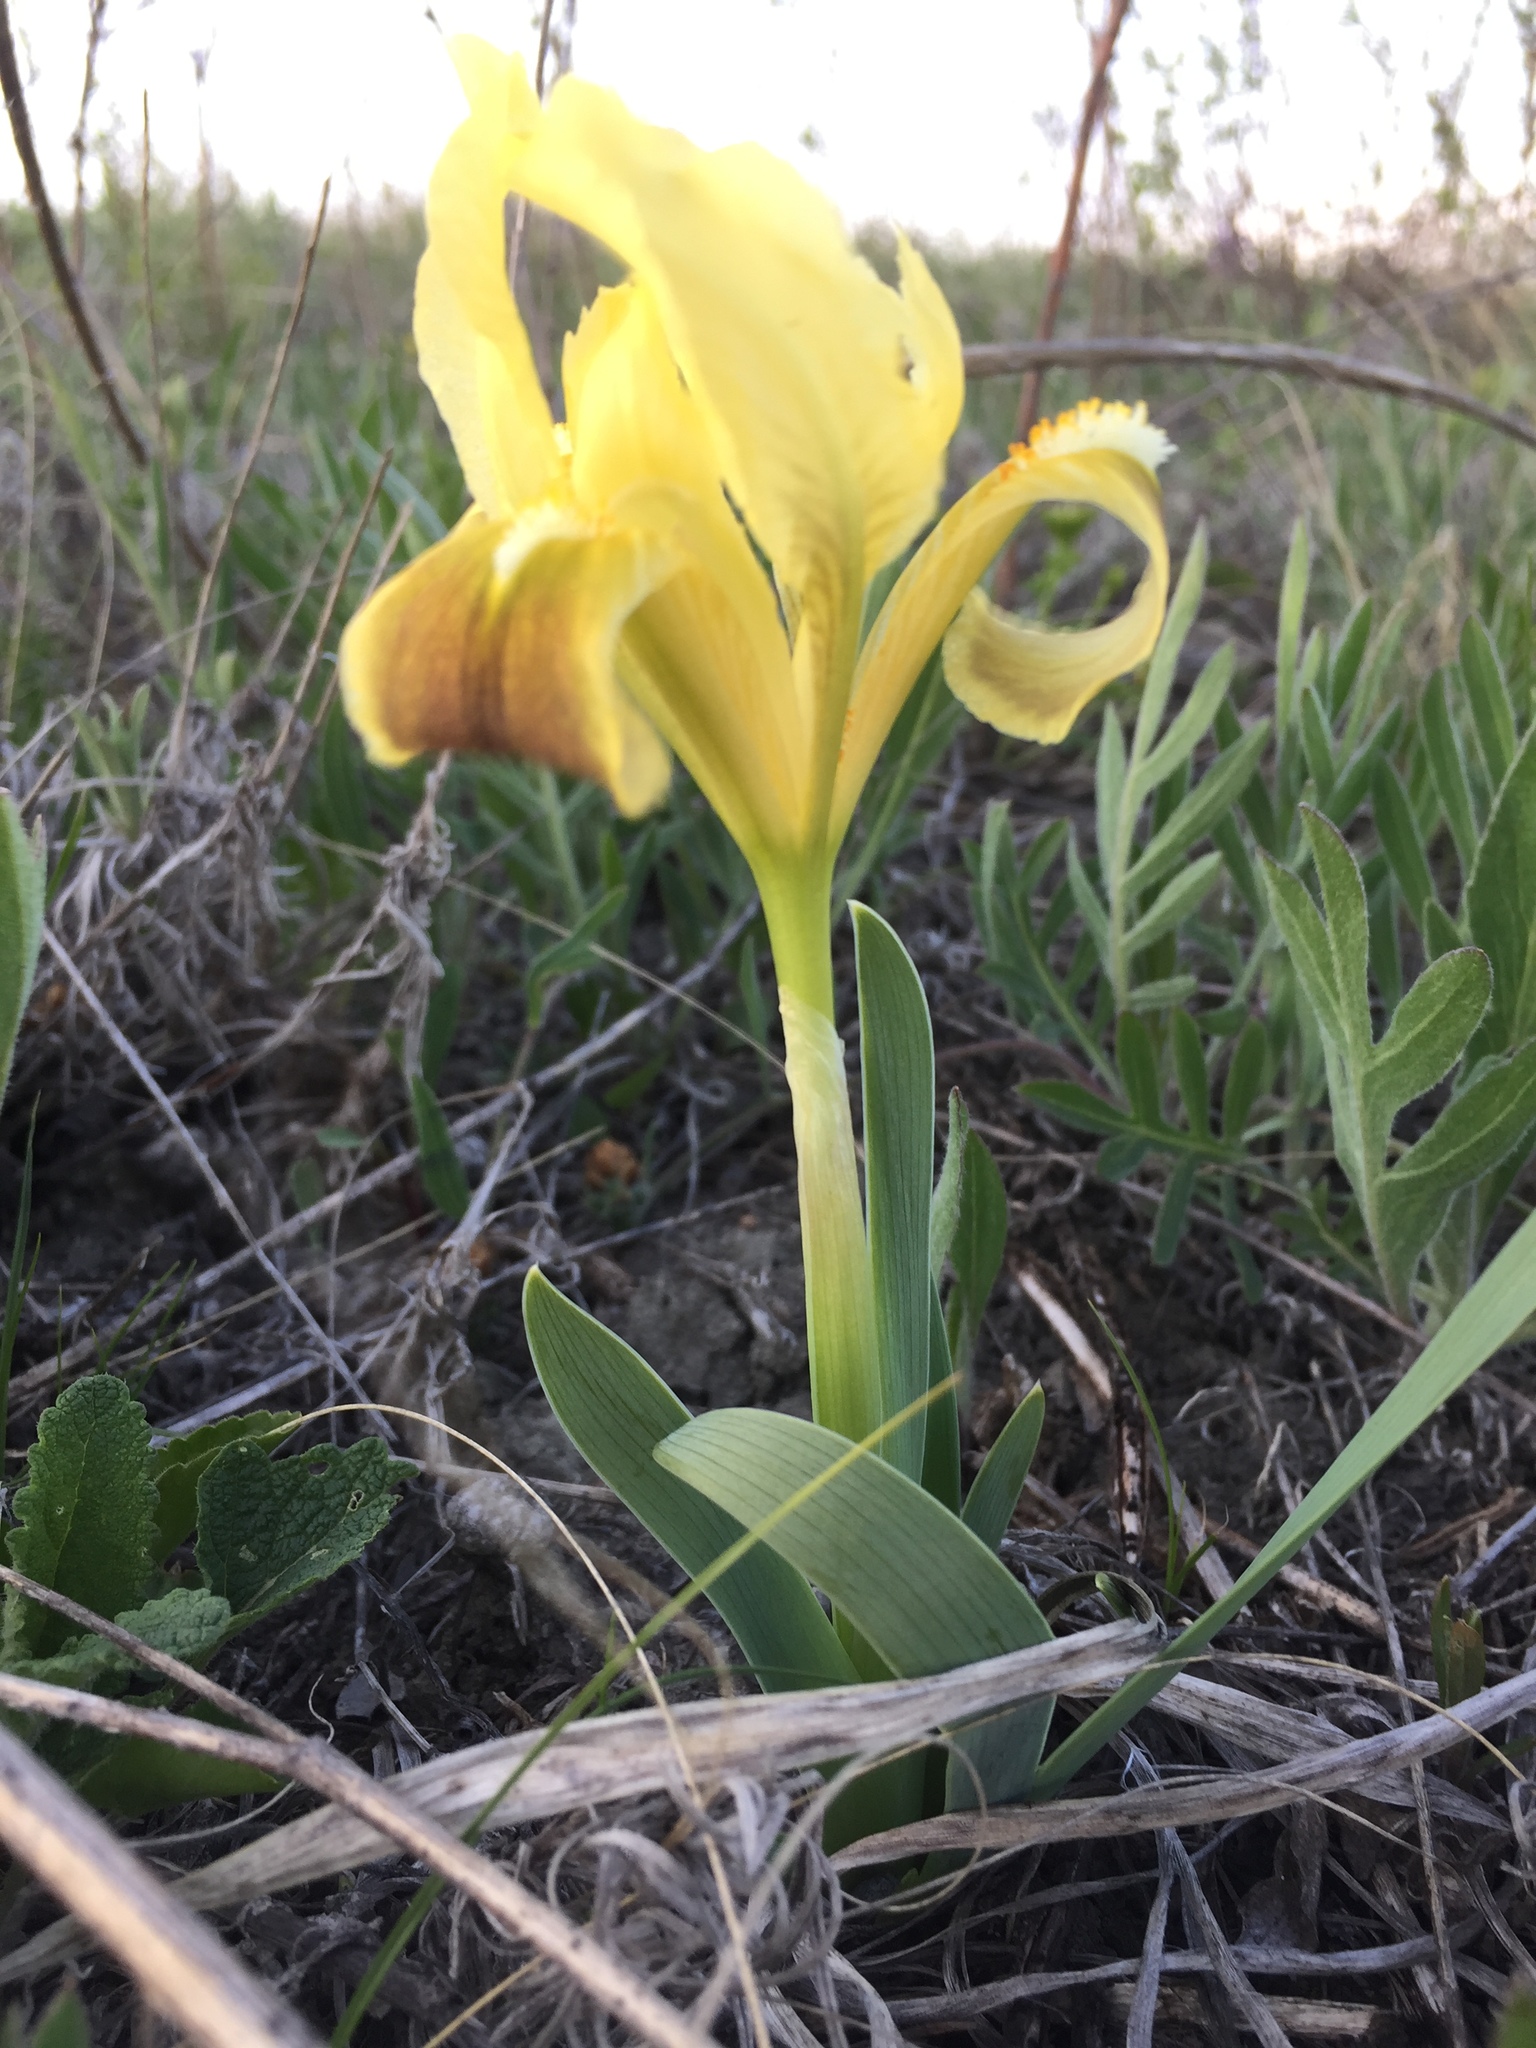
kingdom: Plantae
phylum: Tracheophyta
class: Liliopsida
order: Asparagales
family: Iridaceae
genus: Iris
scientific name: Iris pumila
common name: Dwarf iris
